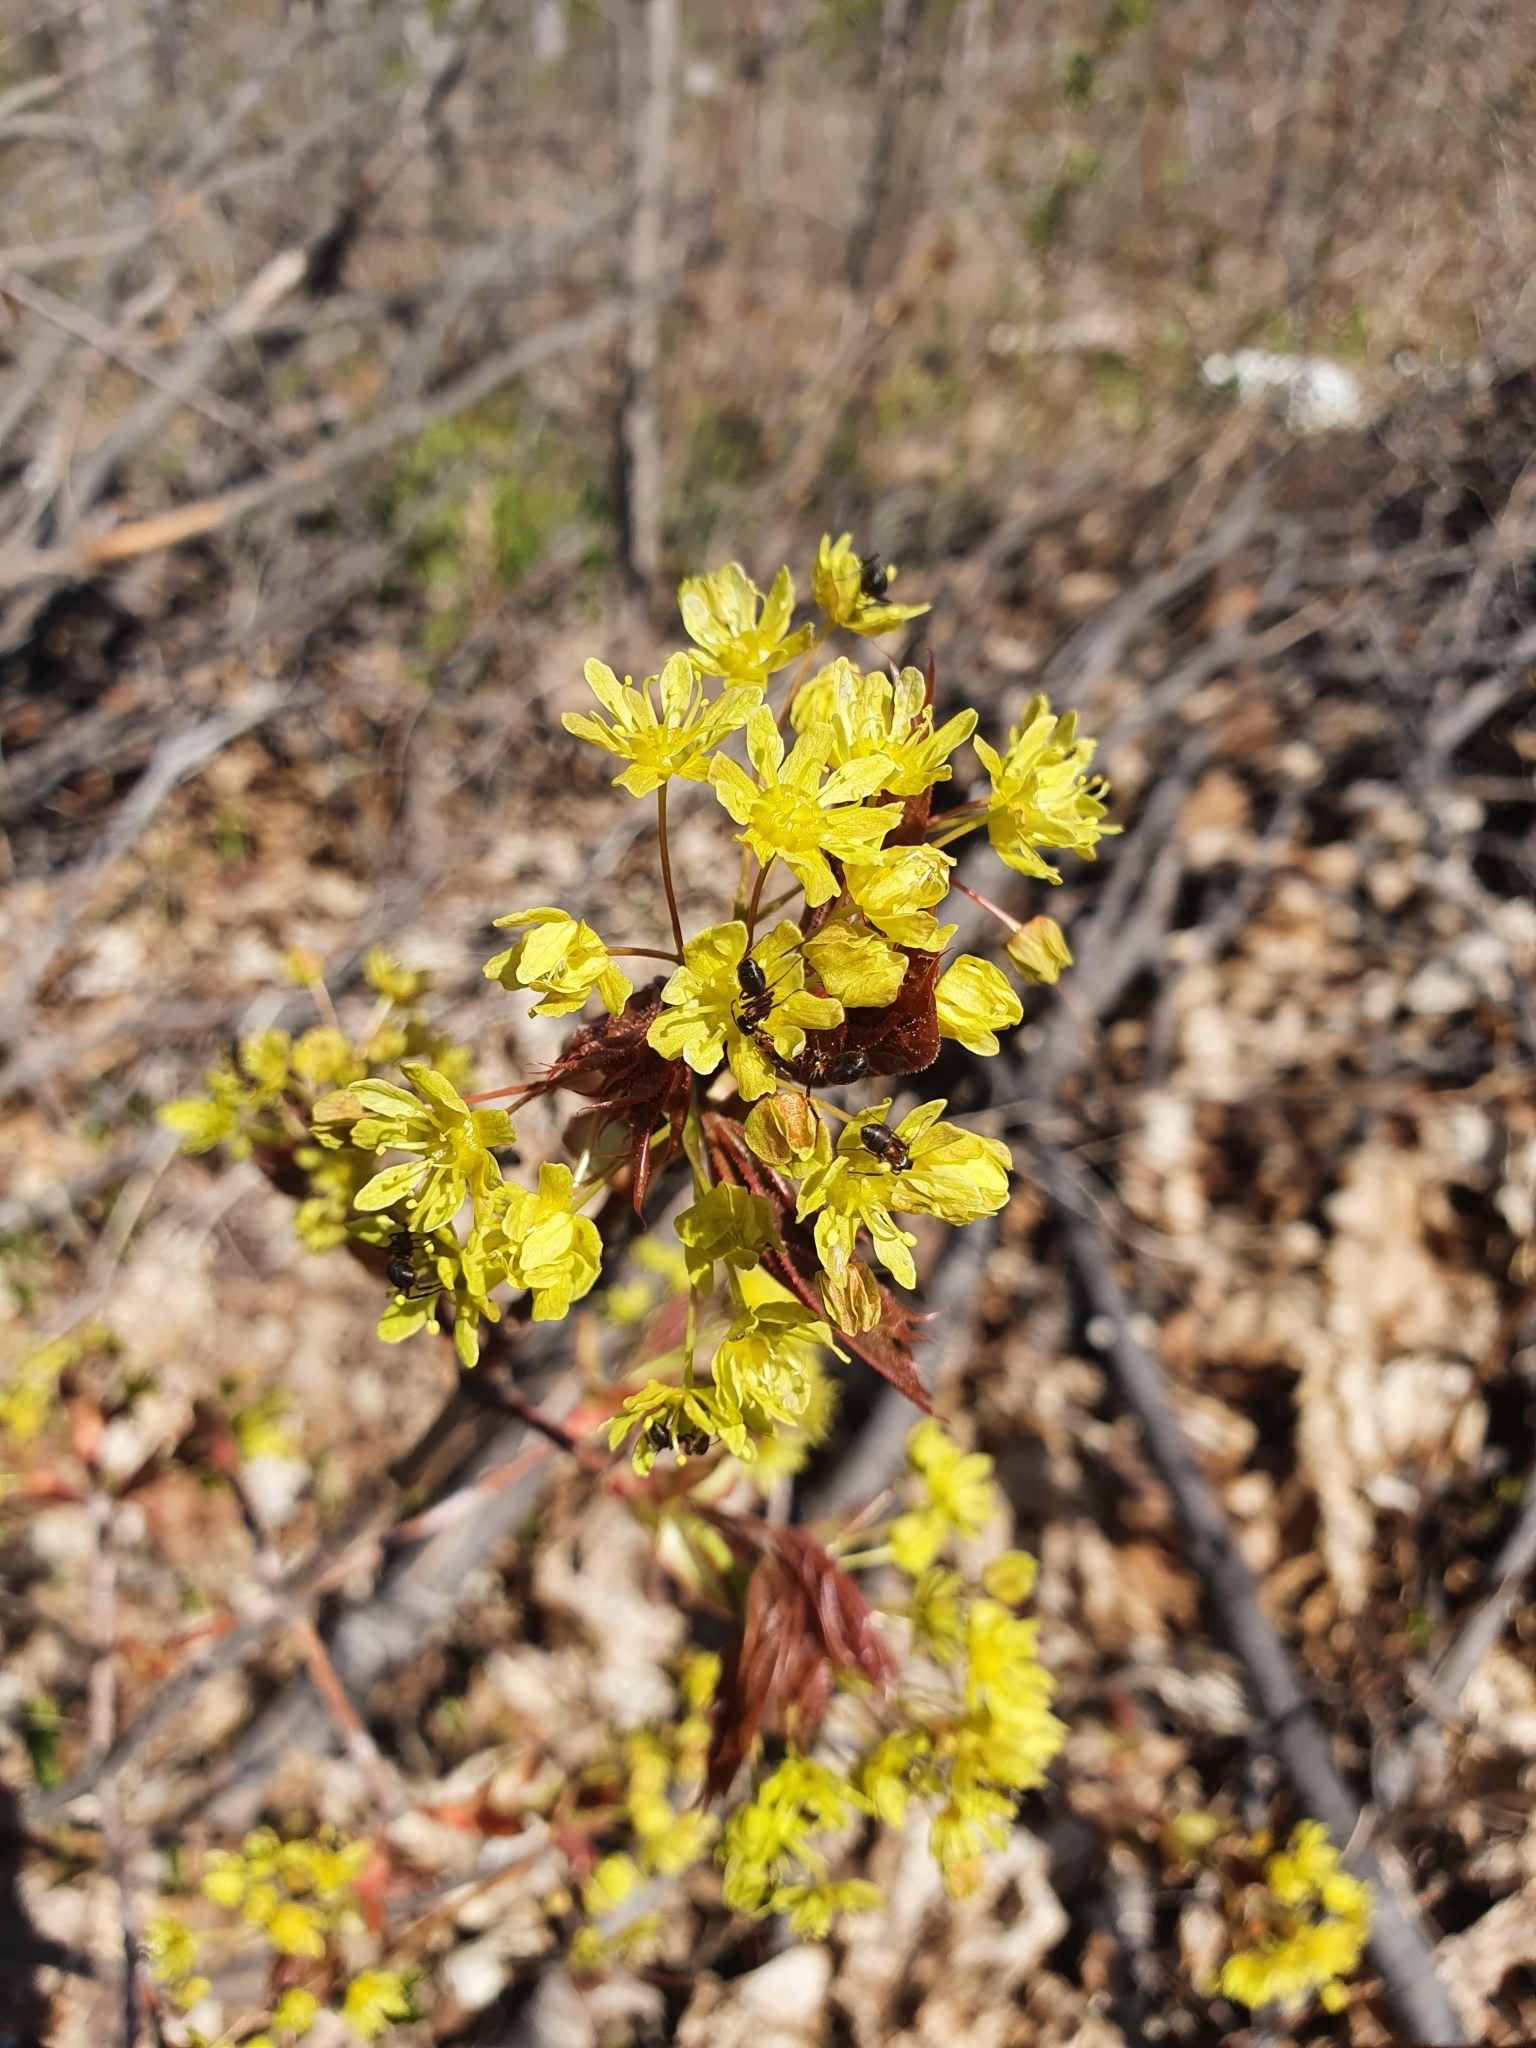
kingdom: Plantae
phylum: Tracheophyta
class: Magnoliopsida
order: Sapindales
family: Sapindaceae
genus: Acer
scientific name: Acer platanoides
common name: Norway maple
